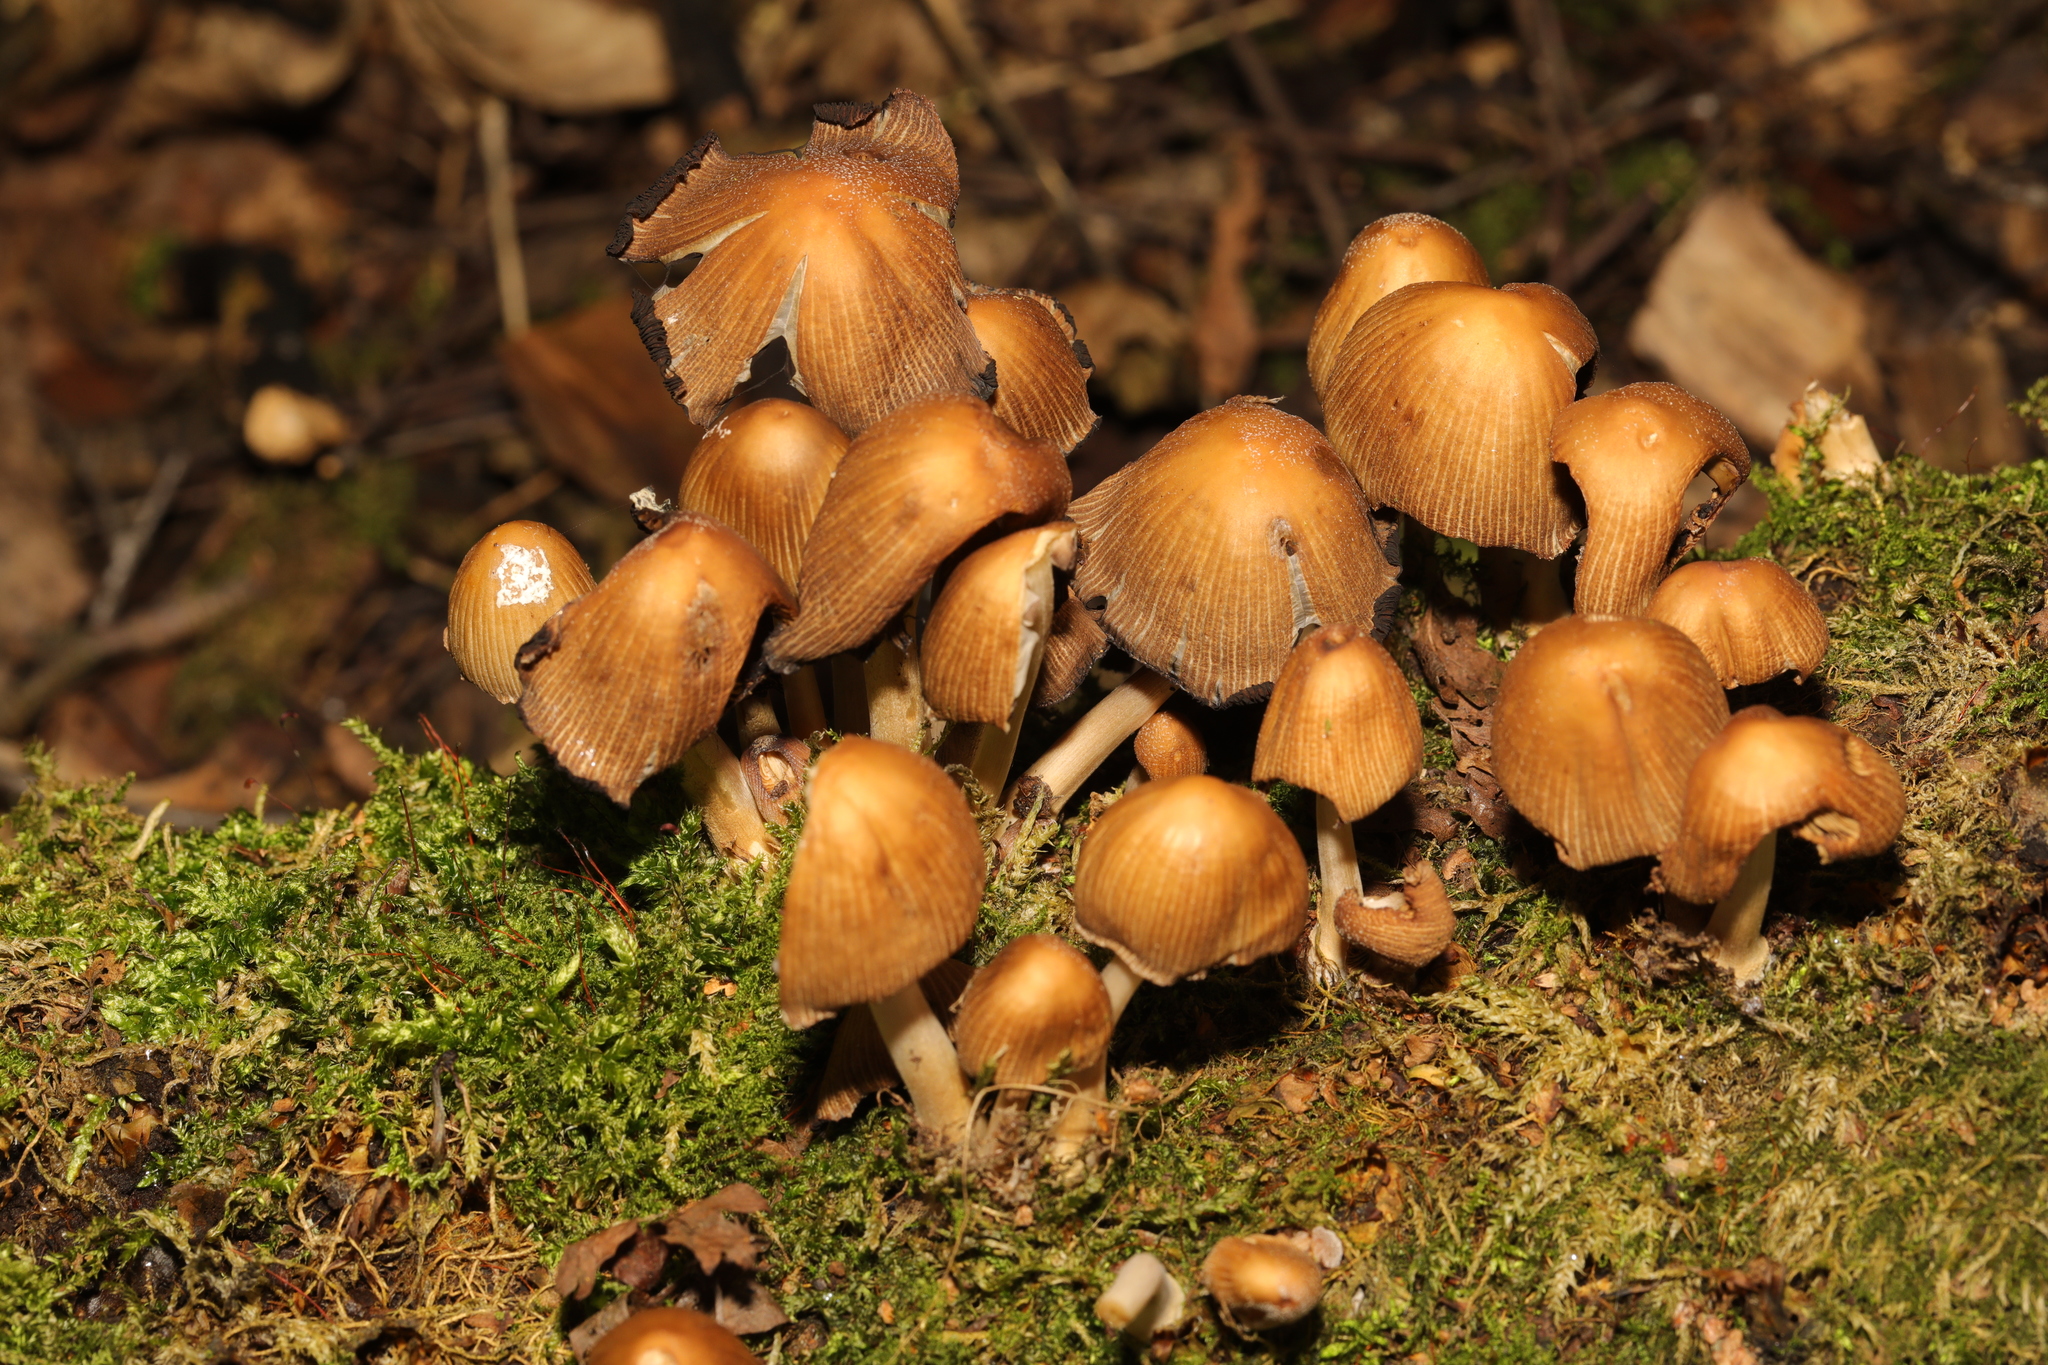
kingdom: Fungi
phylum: Basidiomycota
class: Agaricomycetes
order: Agaricales
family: Psathyrellaceae
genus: Coprinellus
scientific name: Coprinellus micaceus
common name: Glistening ink-cap
